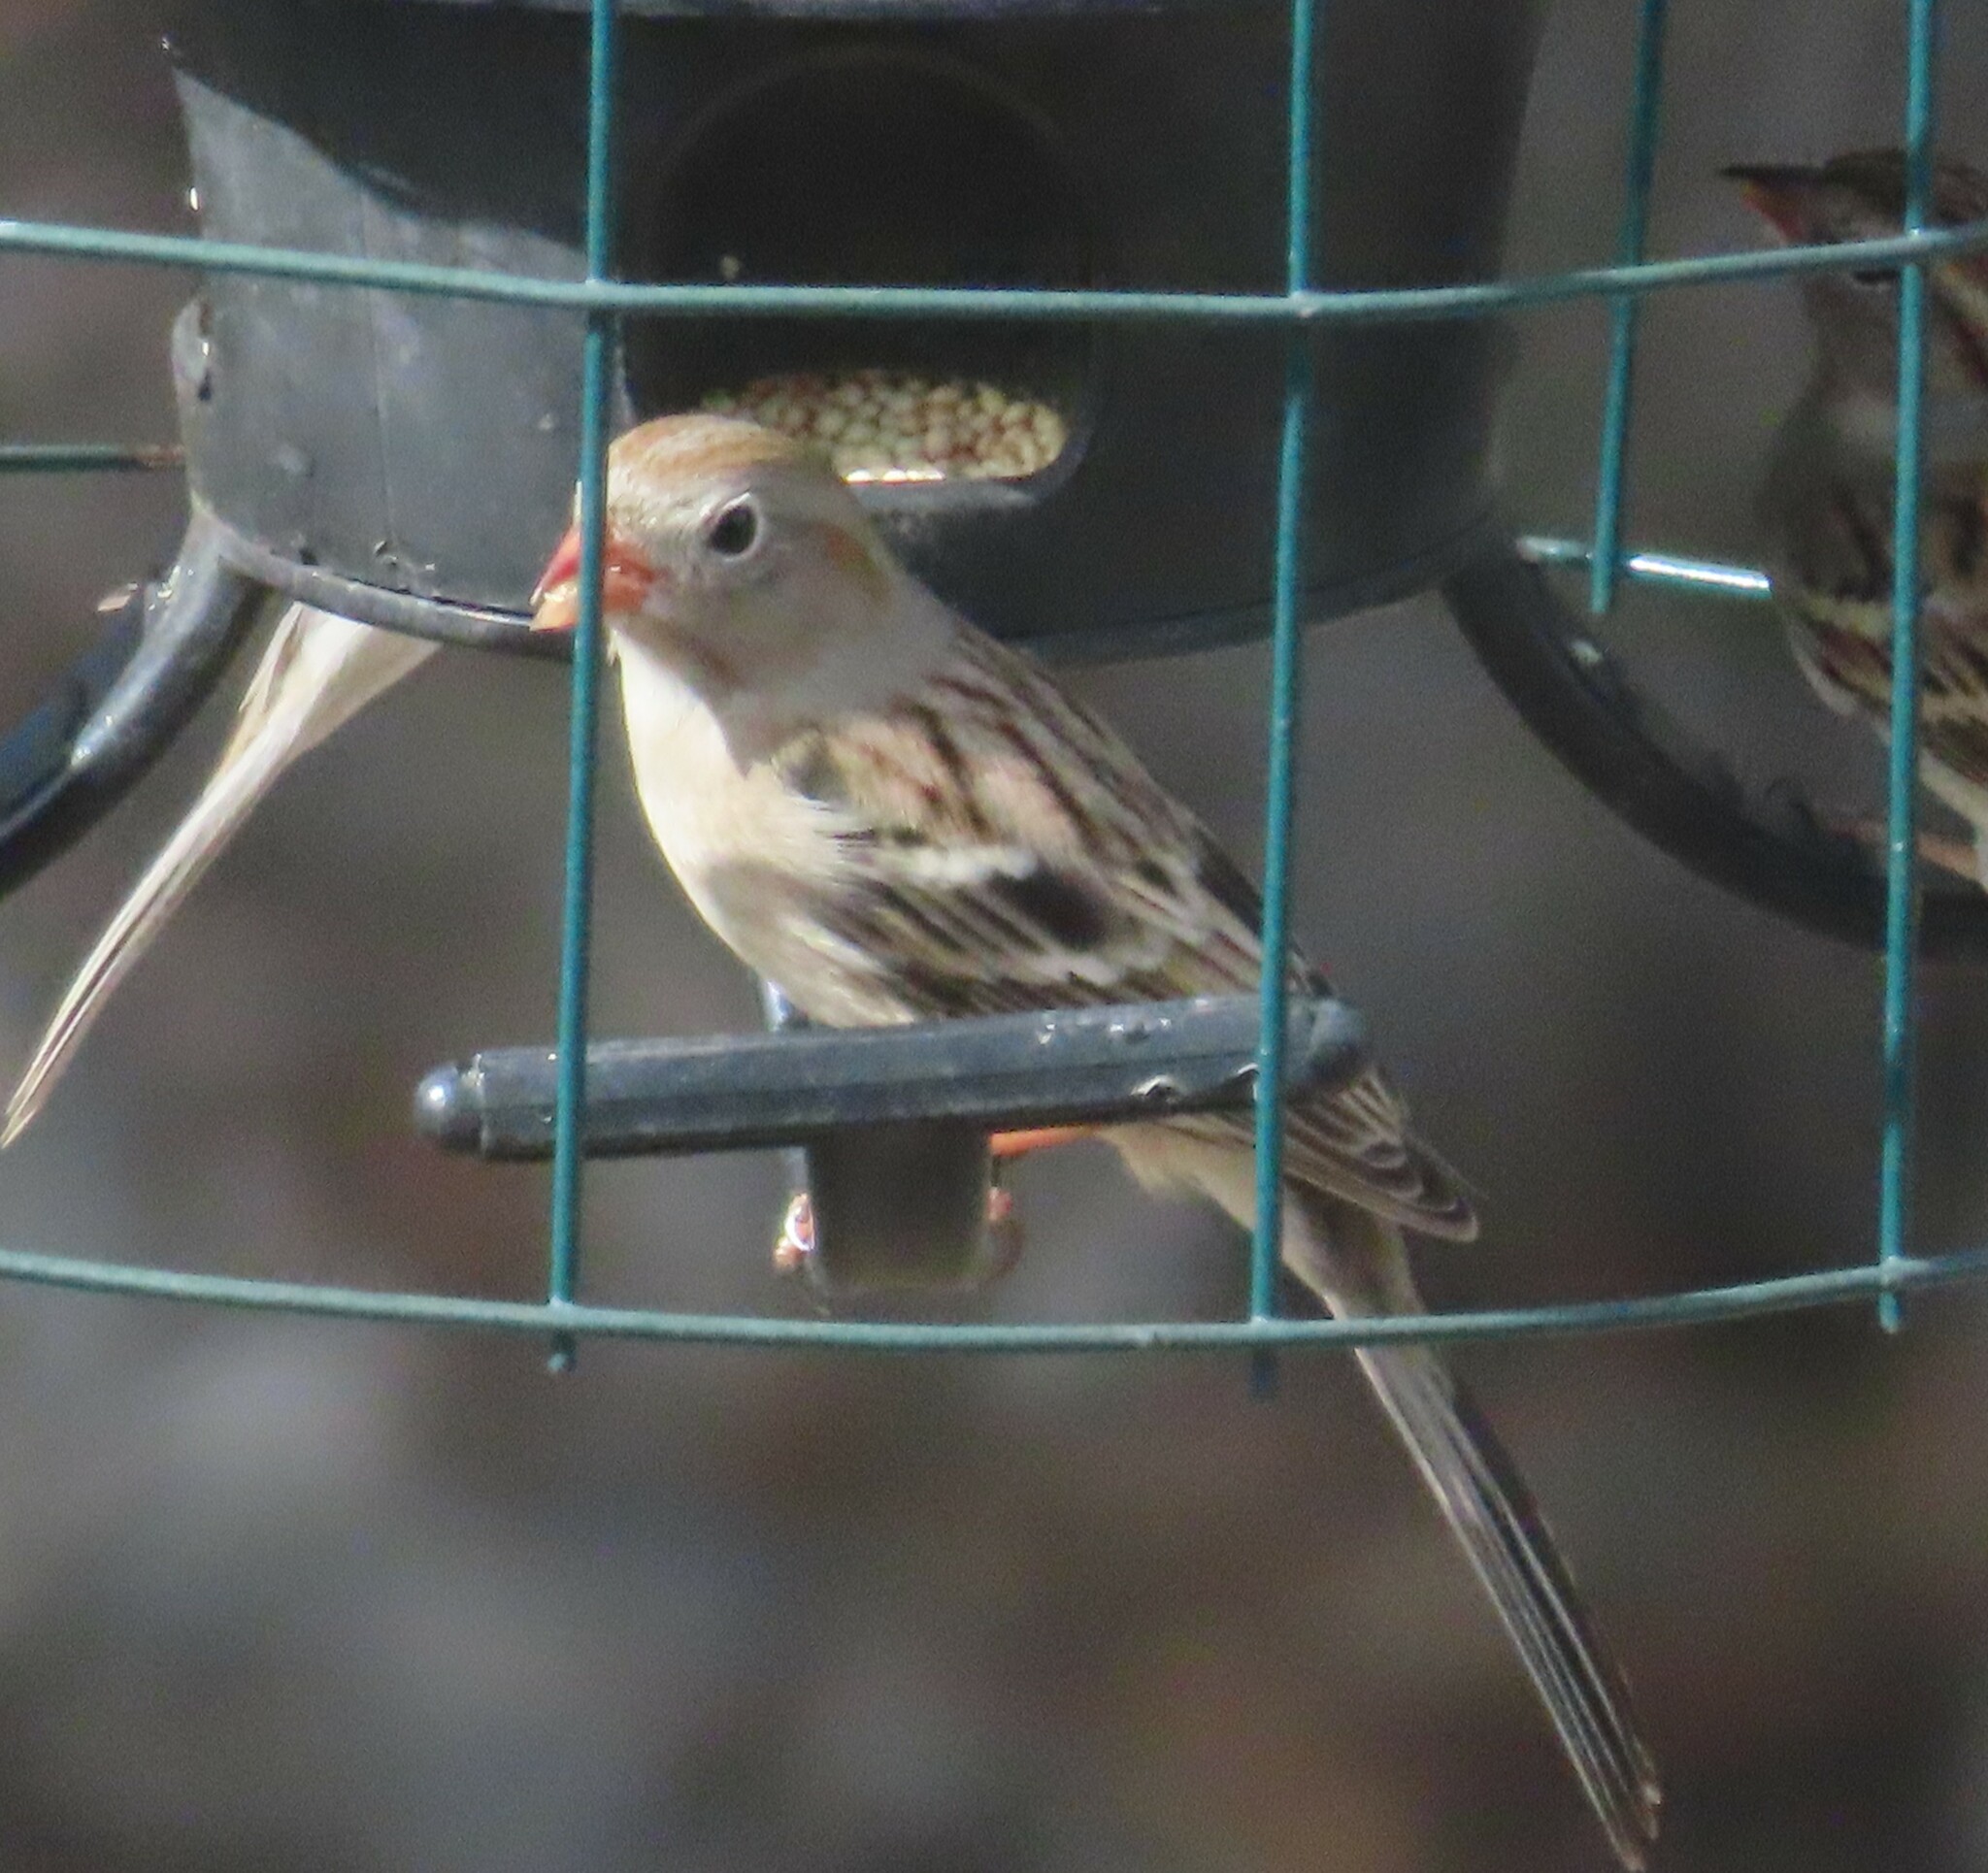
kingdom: Animalia
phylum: Chordata
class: Aves
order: Passeriformes
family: Passerellidae
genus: Spizella
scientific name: Spizella pusilla
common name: Field sparrow
